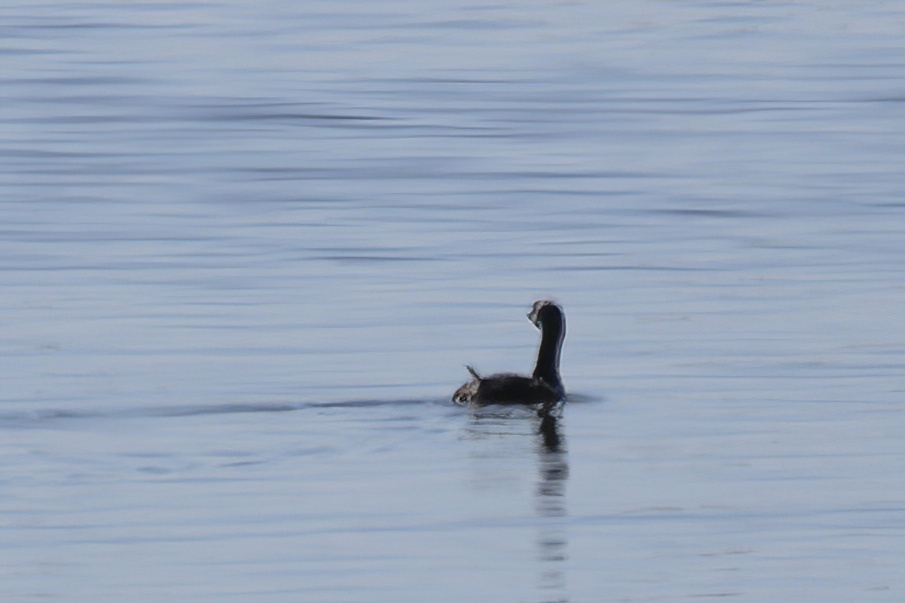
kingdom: Animalia
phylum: Chordata
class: Aves
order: Podicipediformes
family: Podicipedidae
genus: Podilymbus
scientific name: Podilymbus podiceps
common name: Pied-billed grebe
